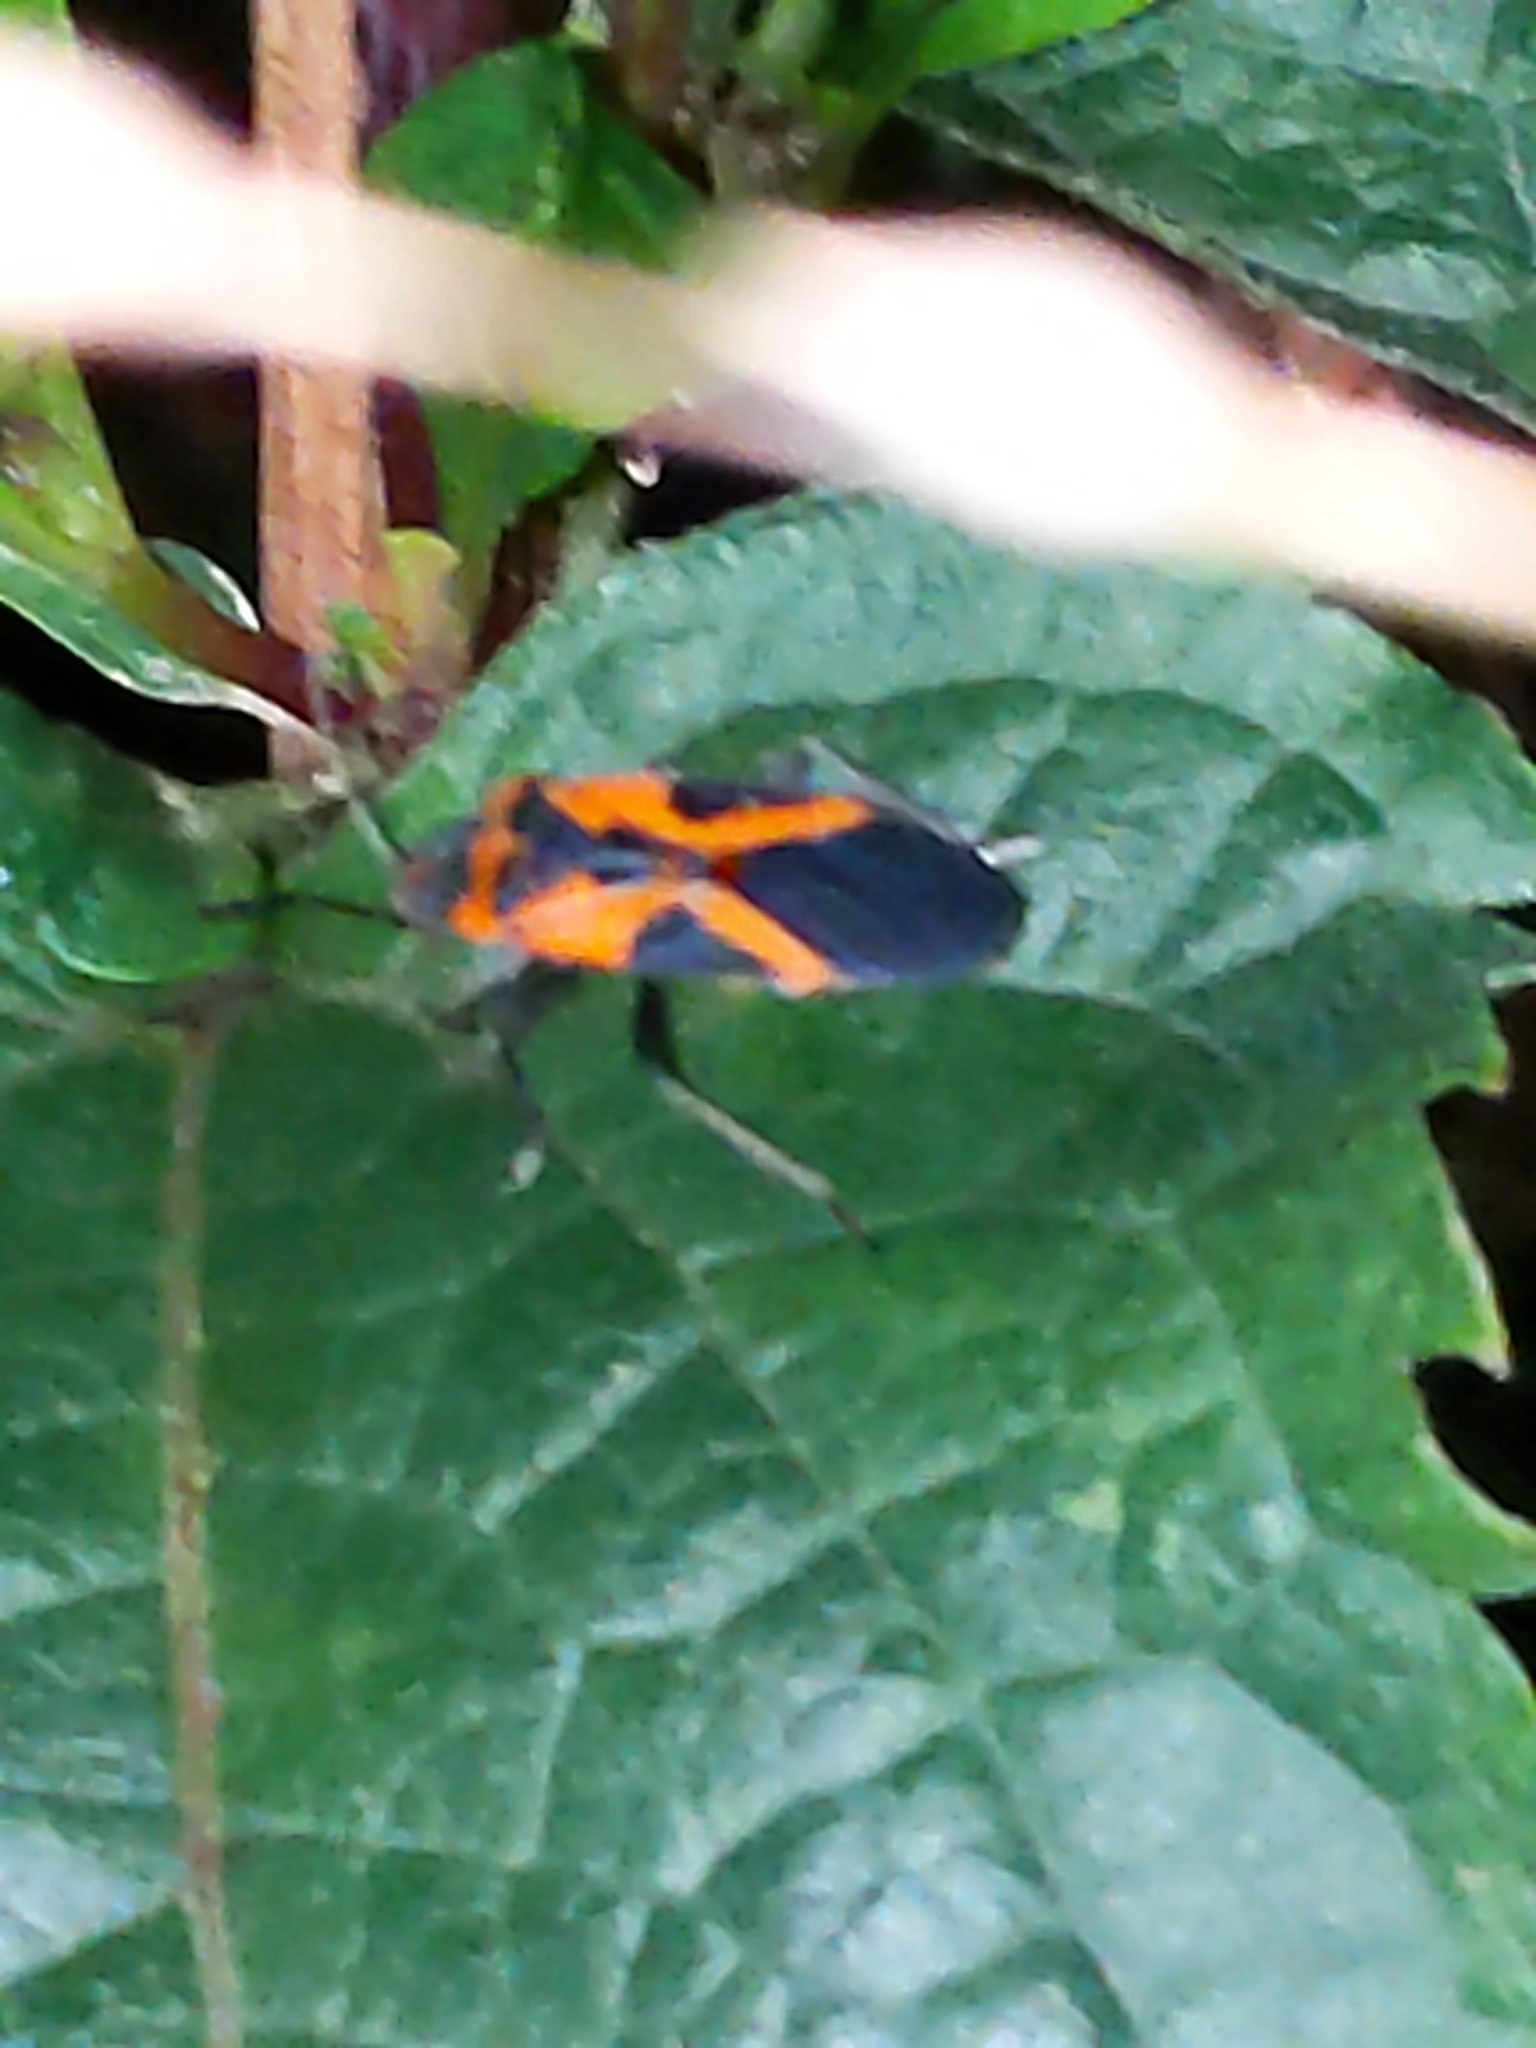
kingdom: Animalia
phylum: Arthropoda
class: Insecta
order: Hemiptera
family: Lygaeidae
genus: Lygaeus
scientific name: Lygaeus turcicus
